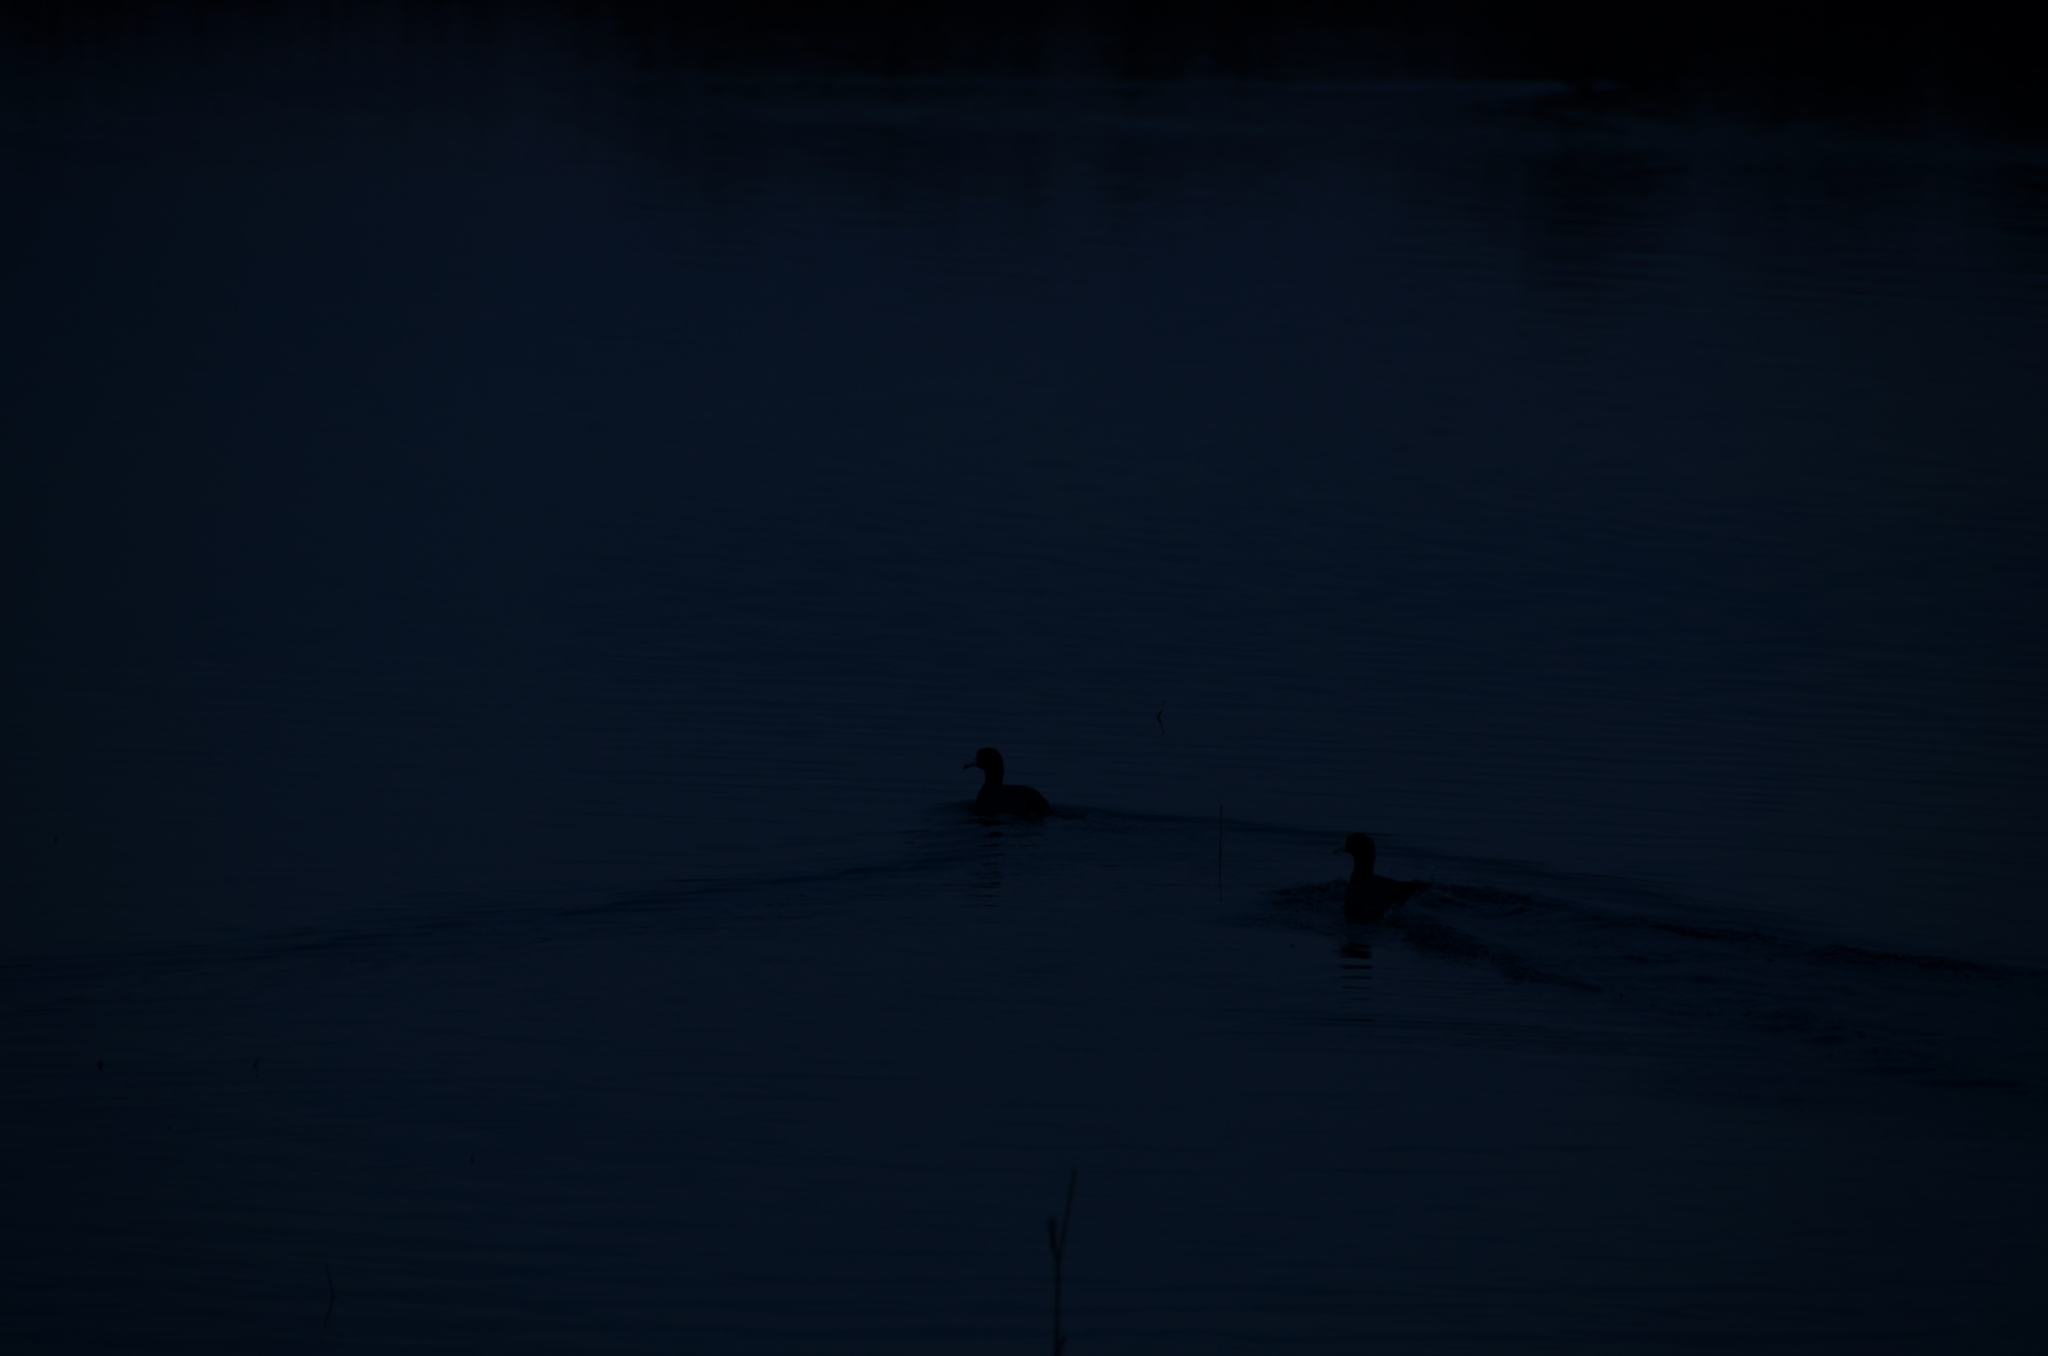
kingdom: Animalia
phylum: Chordata
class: Aves
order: Gruiformes
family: Rallidae
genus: Fulica
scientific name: Fulica americana
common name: American coot
